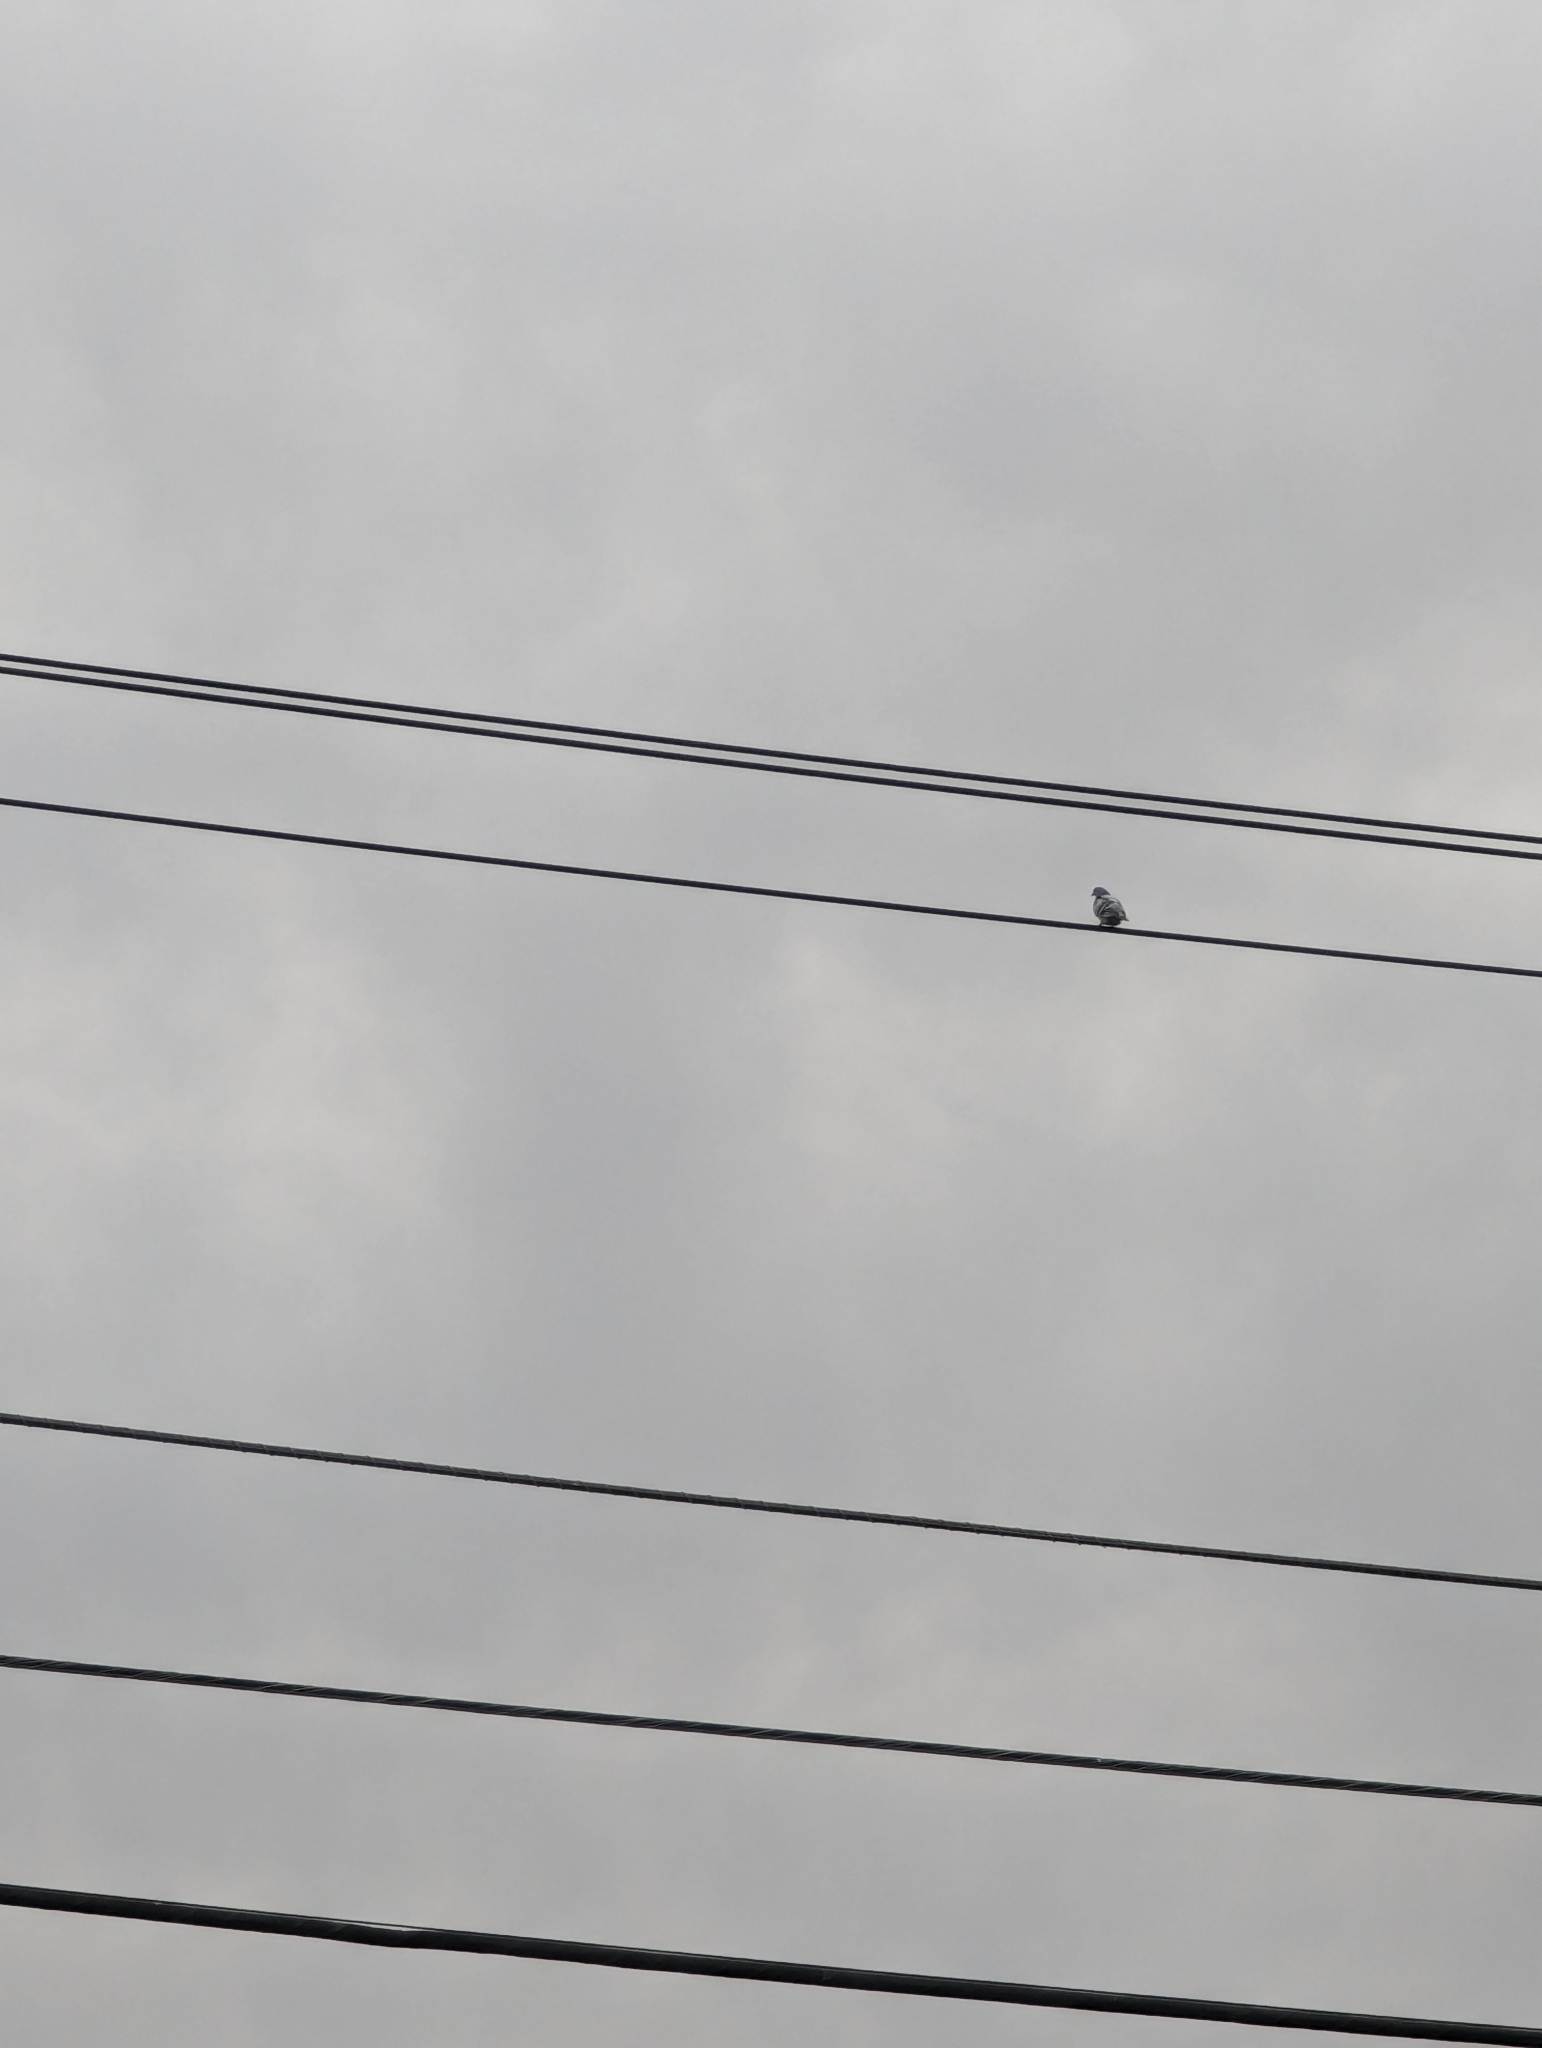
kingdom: Animalia
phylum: Chordata
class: Aves
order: Columbiformes
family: Columbidae
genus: Columba
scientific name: Columba livia
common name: Rock pigeon
